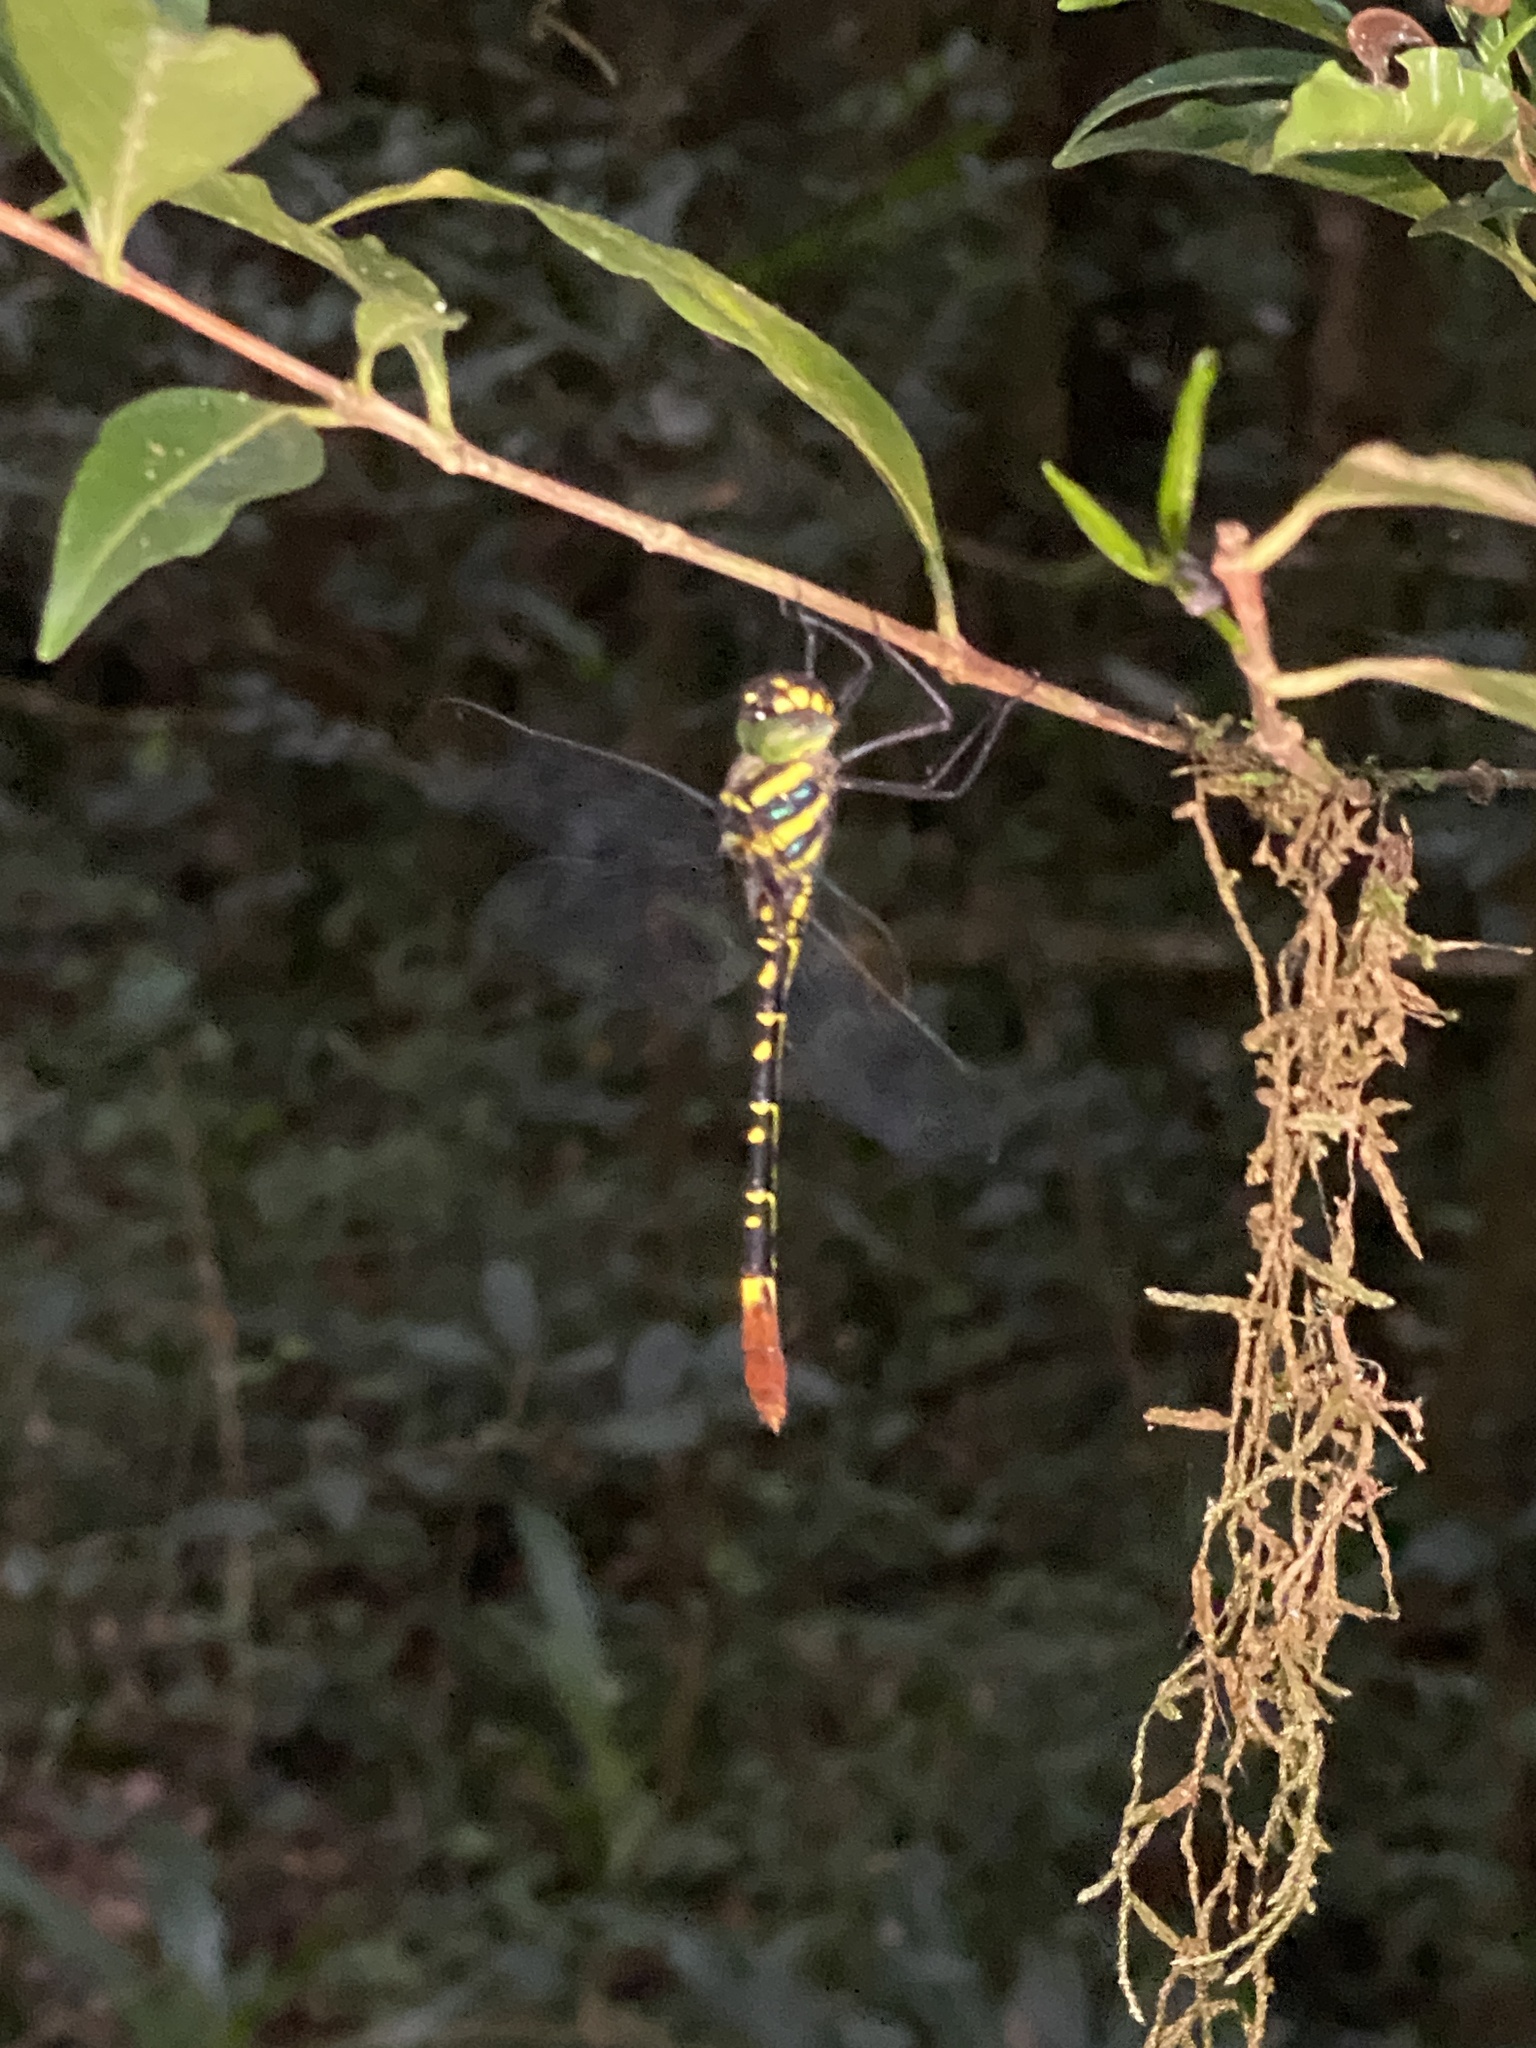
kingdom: Animalia
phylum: Arthropoda
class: Insecta
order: Odonata
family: Macromiidae
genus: Phyllomacromia
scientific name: Phyllomacromia trifasciata
